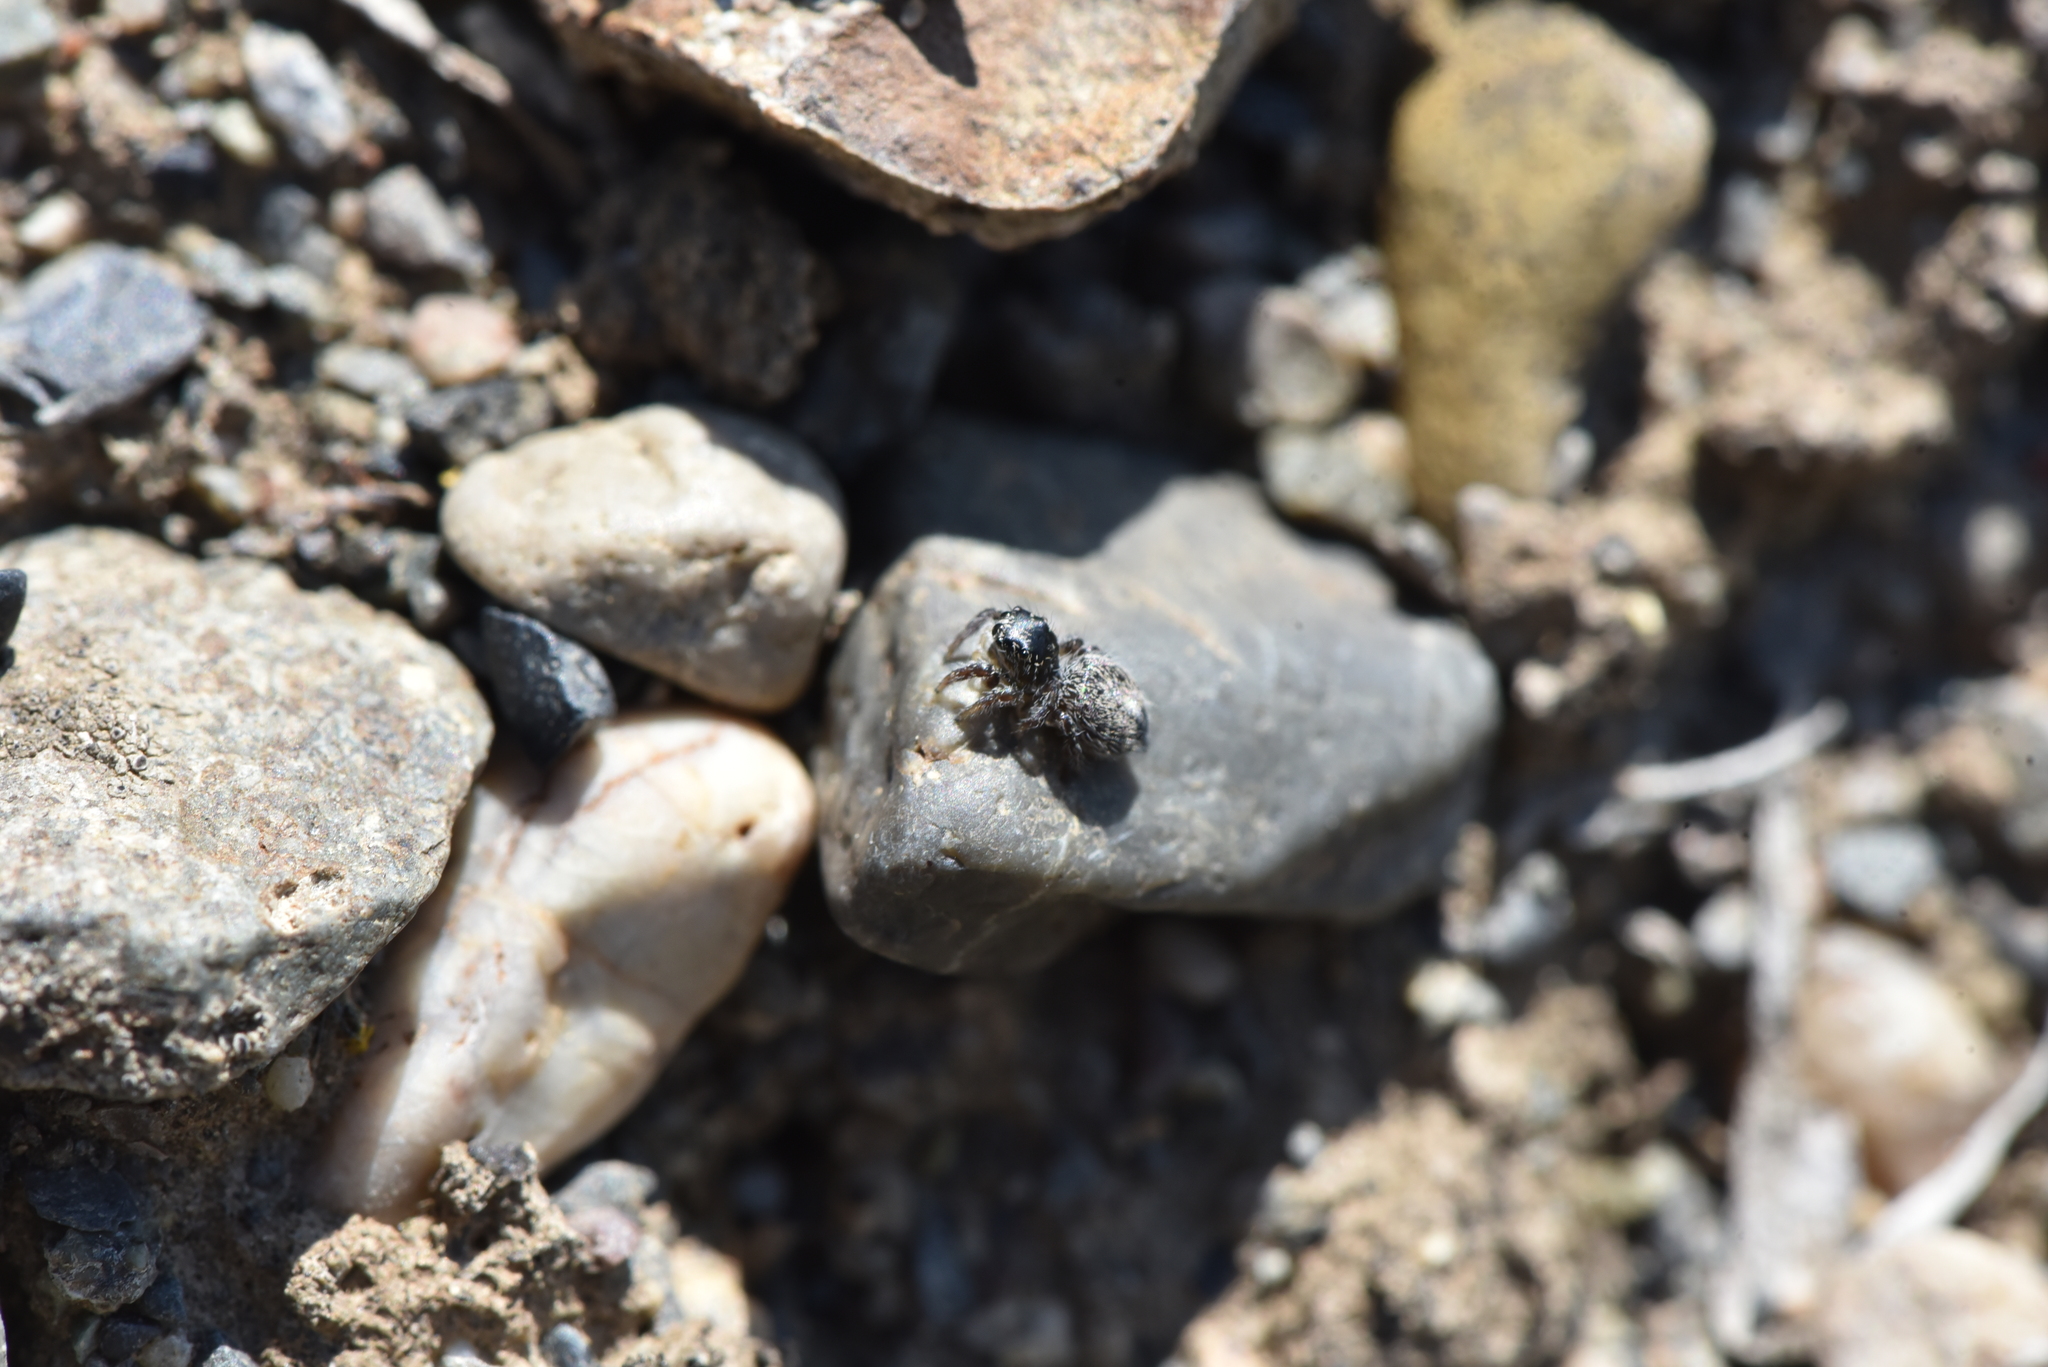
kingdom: Animalia
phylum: Arthropoda
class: Arachnida
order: Araneae
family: Salticidae
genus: Habronattus
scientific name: Habronattus hirsutus
